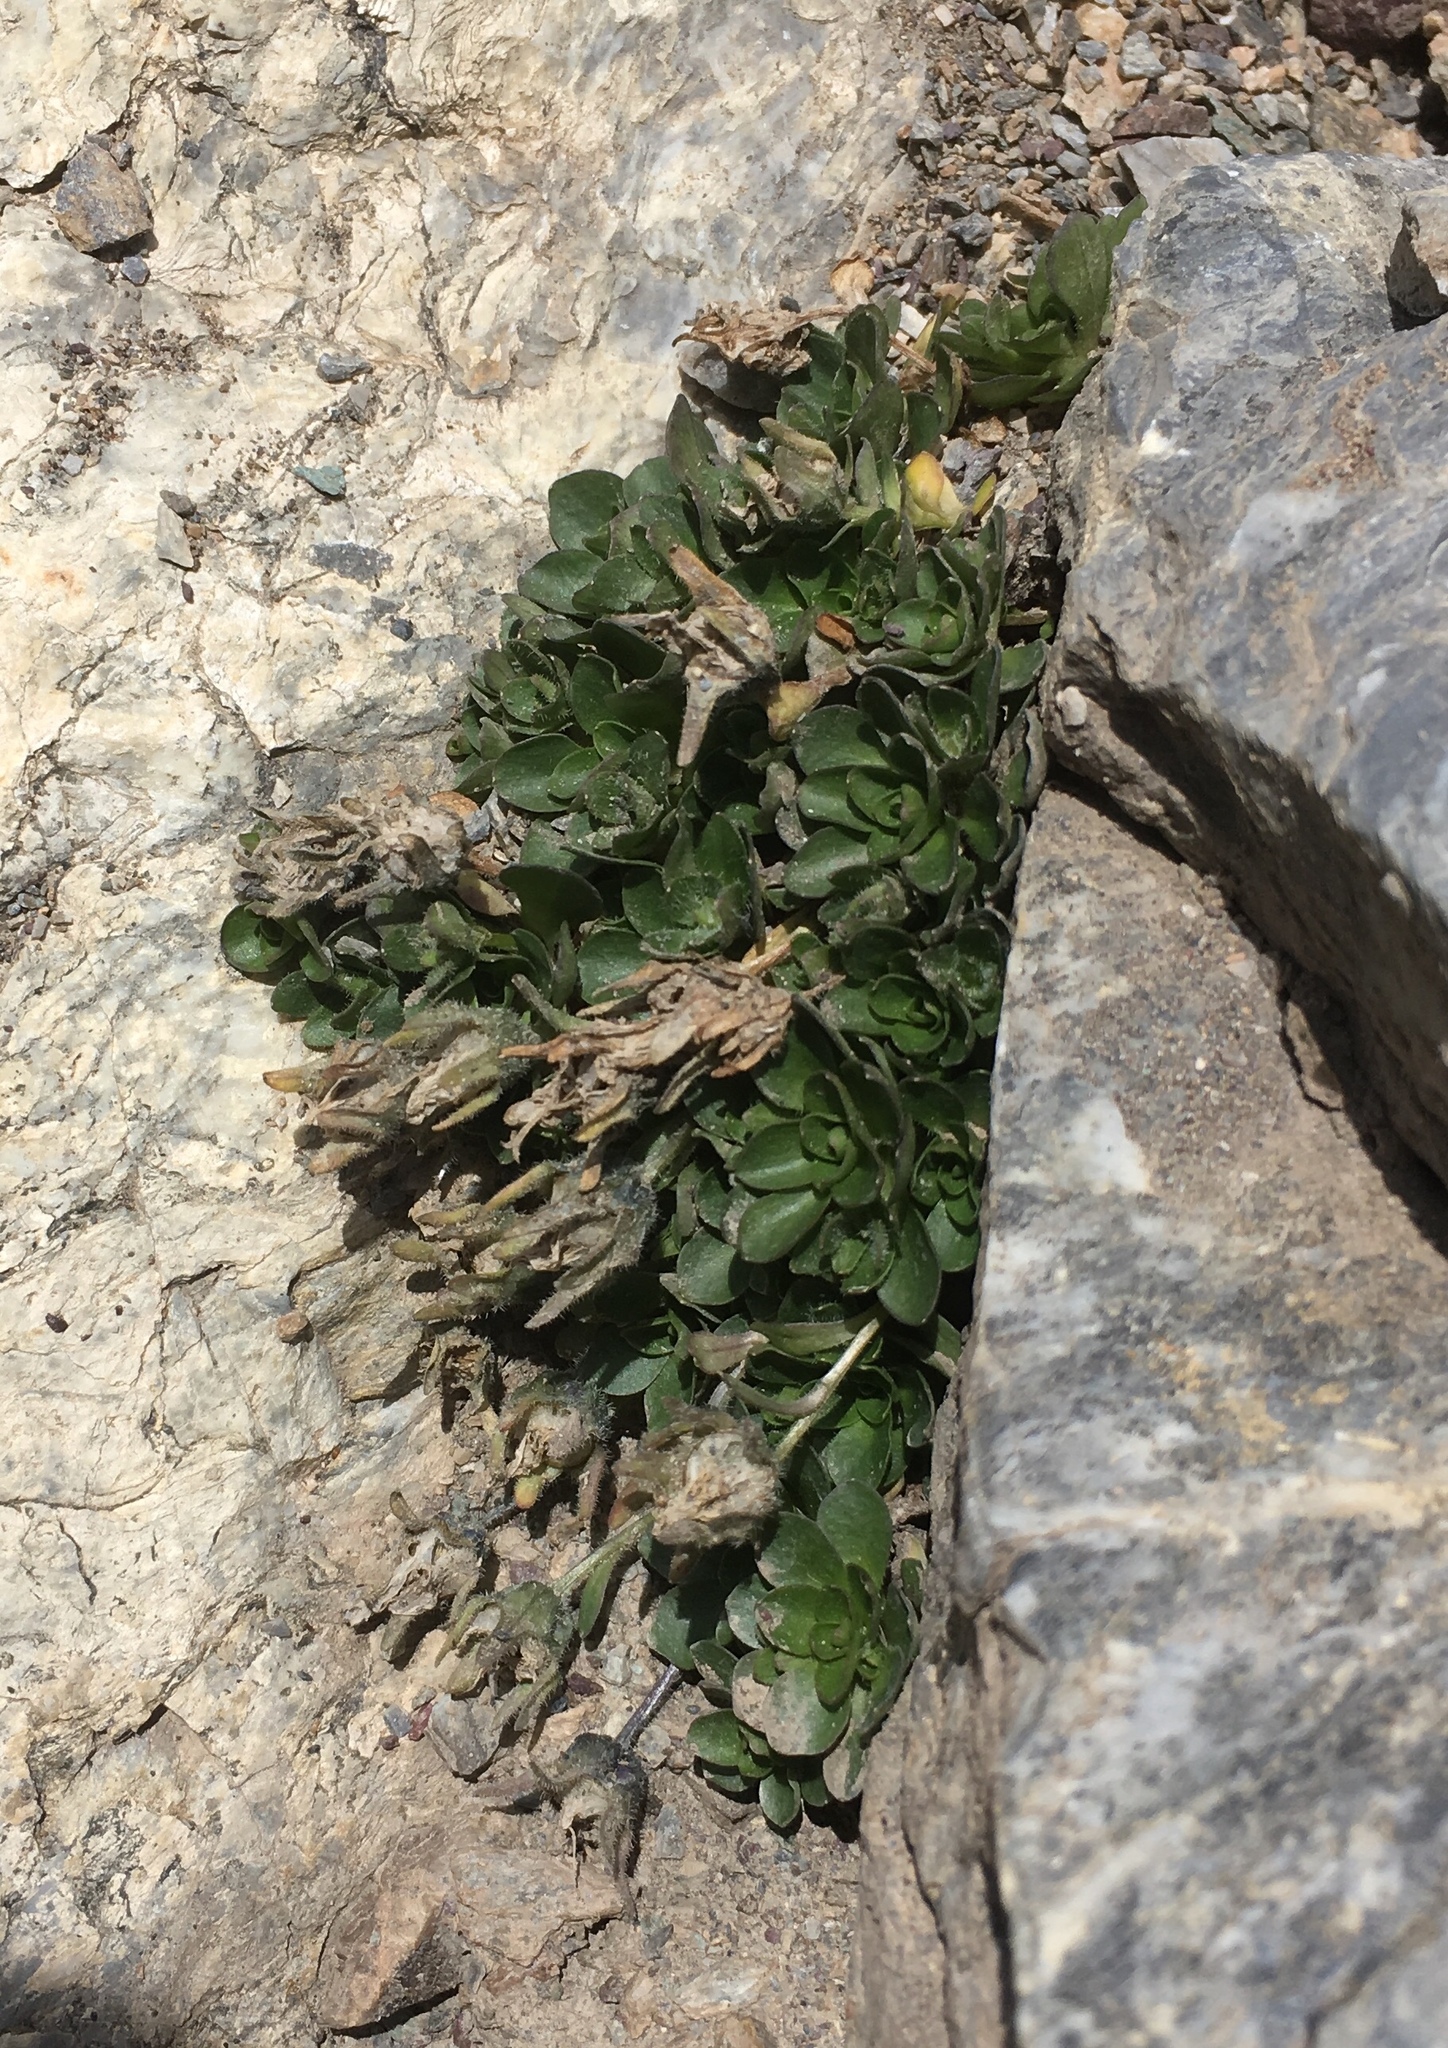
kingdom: Plantae
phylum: Tracheophyta
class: Magnoliopsida
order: Asterales
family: Campanulaceae
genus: Campanula
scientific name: Campanula cenisia
